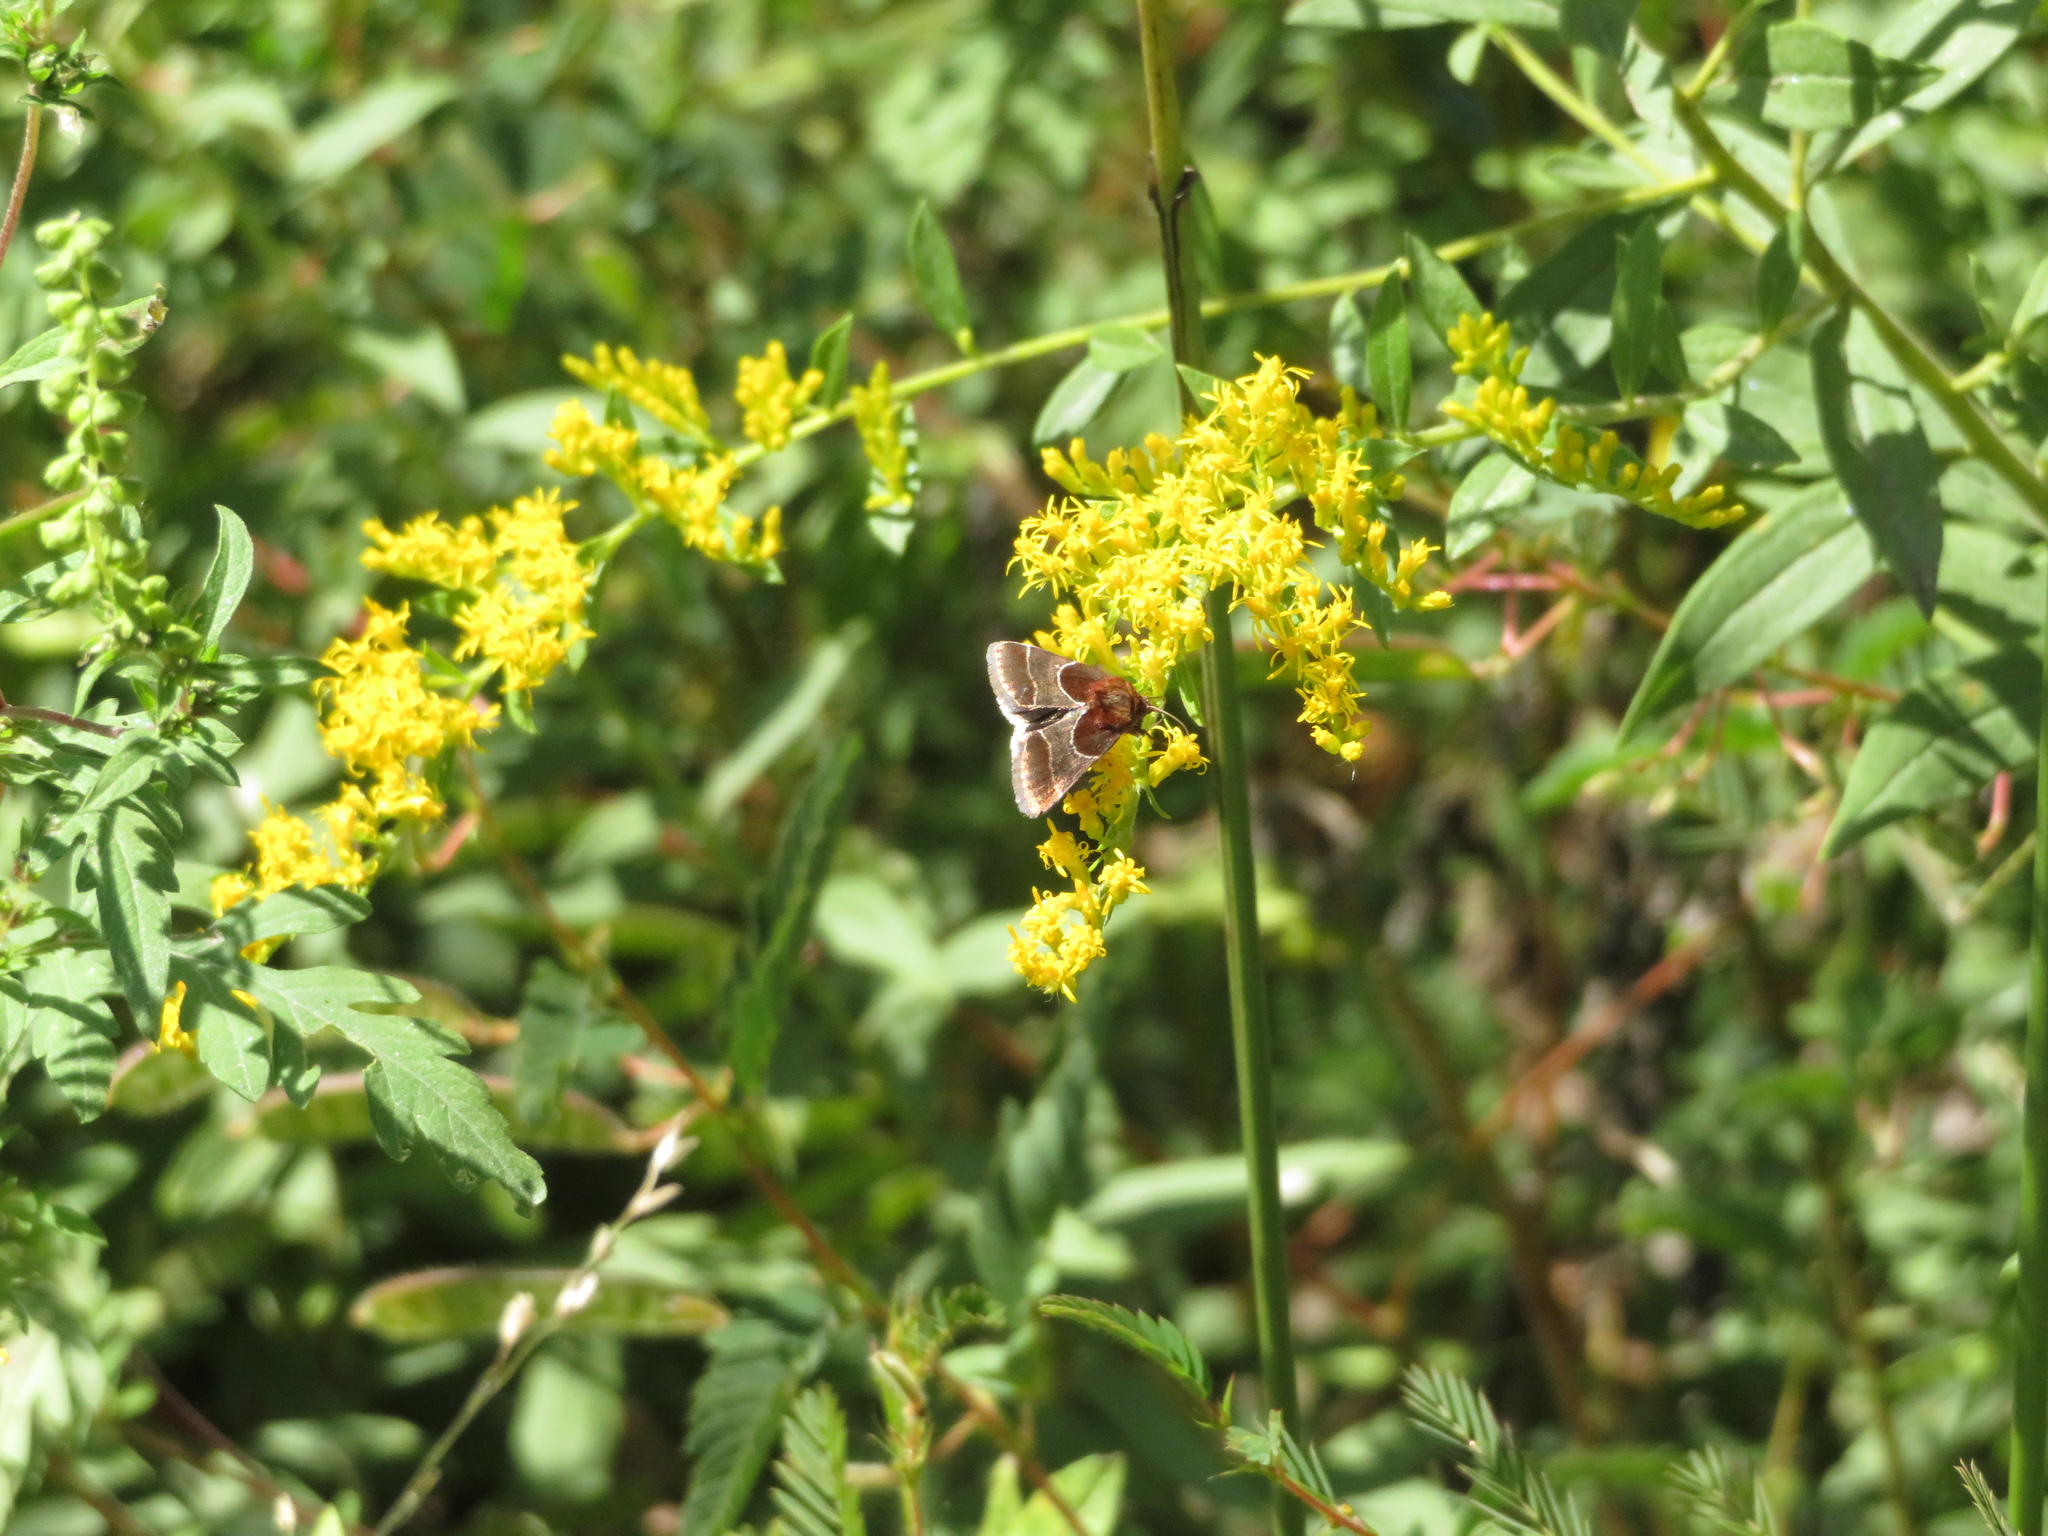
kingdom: Animalia
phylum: Arthropoda
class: Insecta
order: Lepidoptera
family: Noctuidae
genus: Schinia
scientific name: Schinia arcigera
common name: Arcigera flower moth
